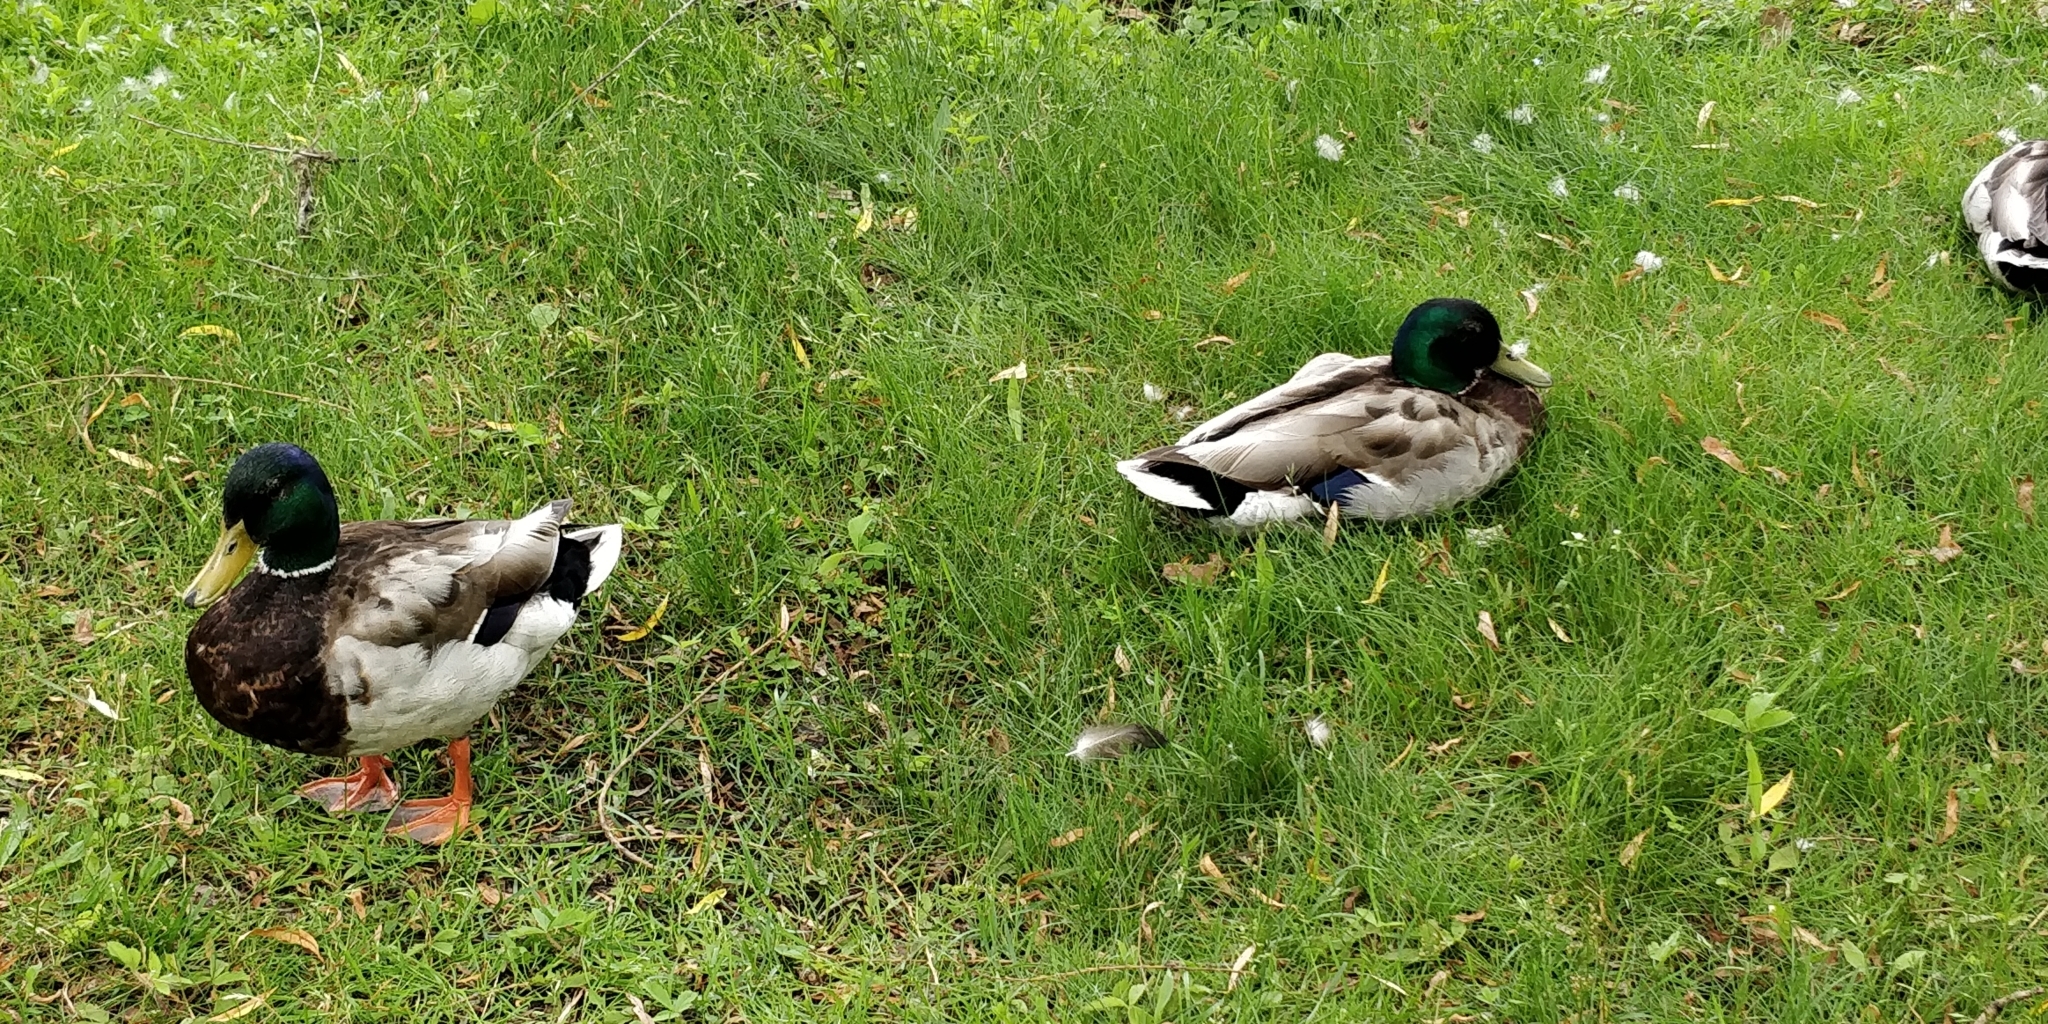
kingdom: Animalia
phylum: Chordata
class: Aves
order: Anseriformes
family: Anatidae
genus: Anas
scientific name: Anas platyrhynchos
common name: Mallard
